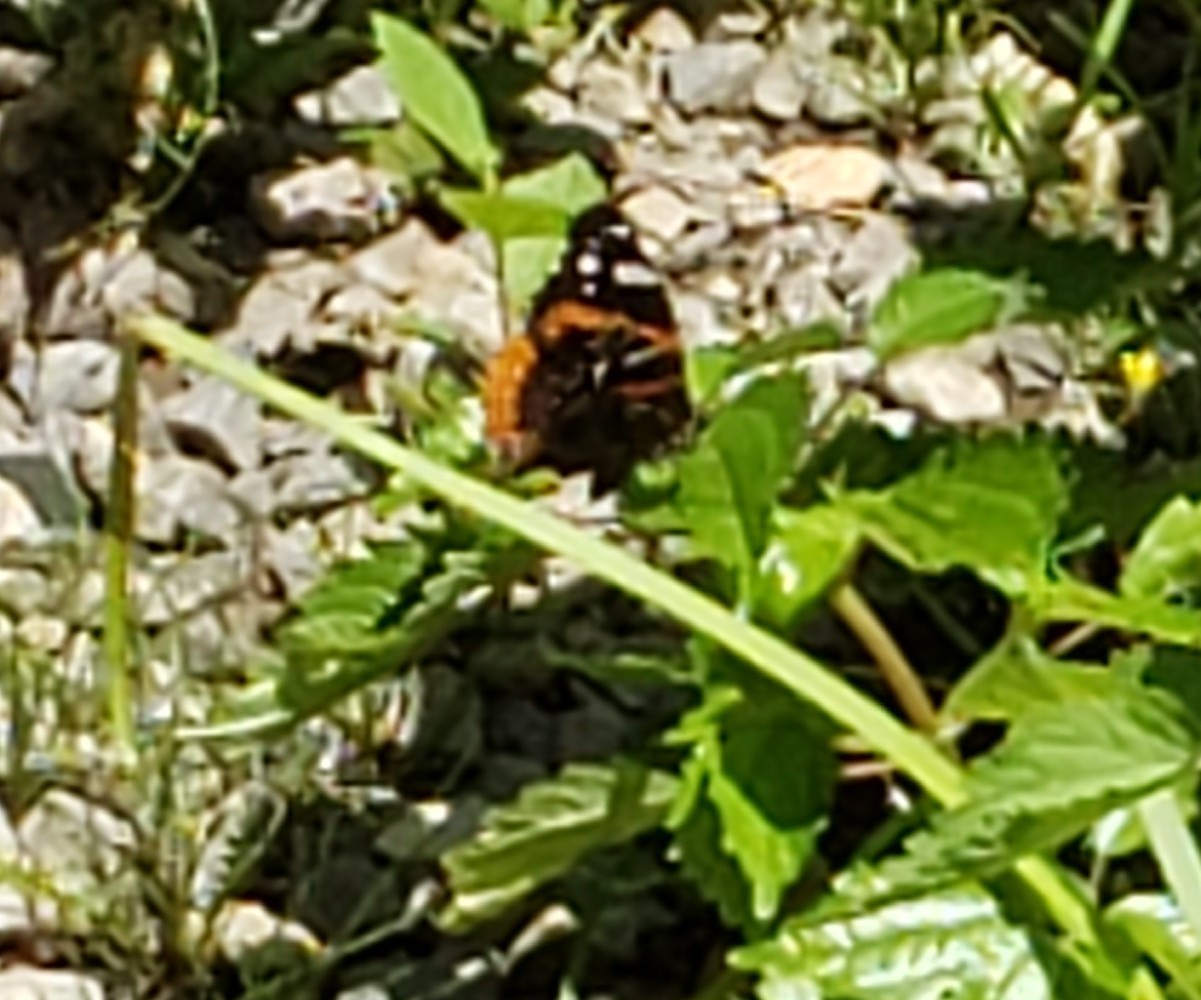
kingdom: Animalia
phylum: Arthropoda
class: Insecta
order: Lepidoptera
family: Nymphalidae
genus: Vanessa
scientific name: Vanessa atalanta
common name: Red admiral
